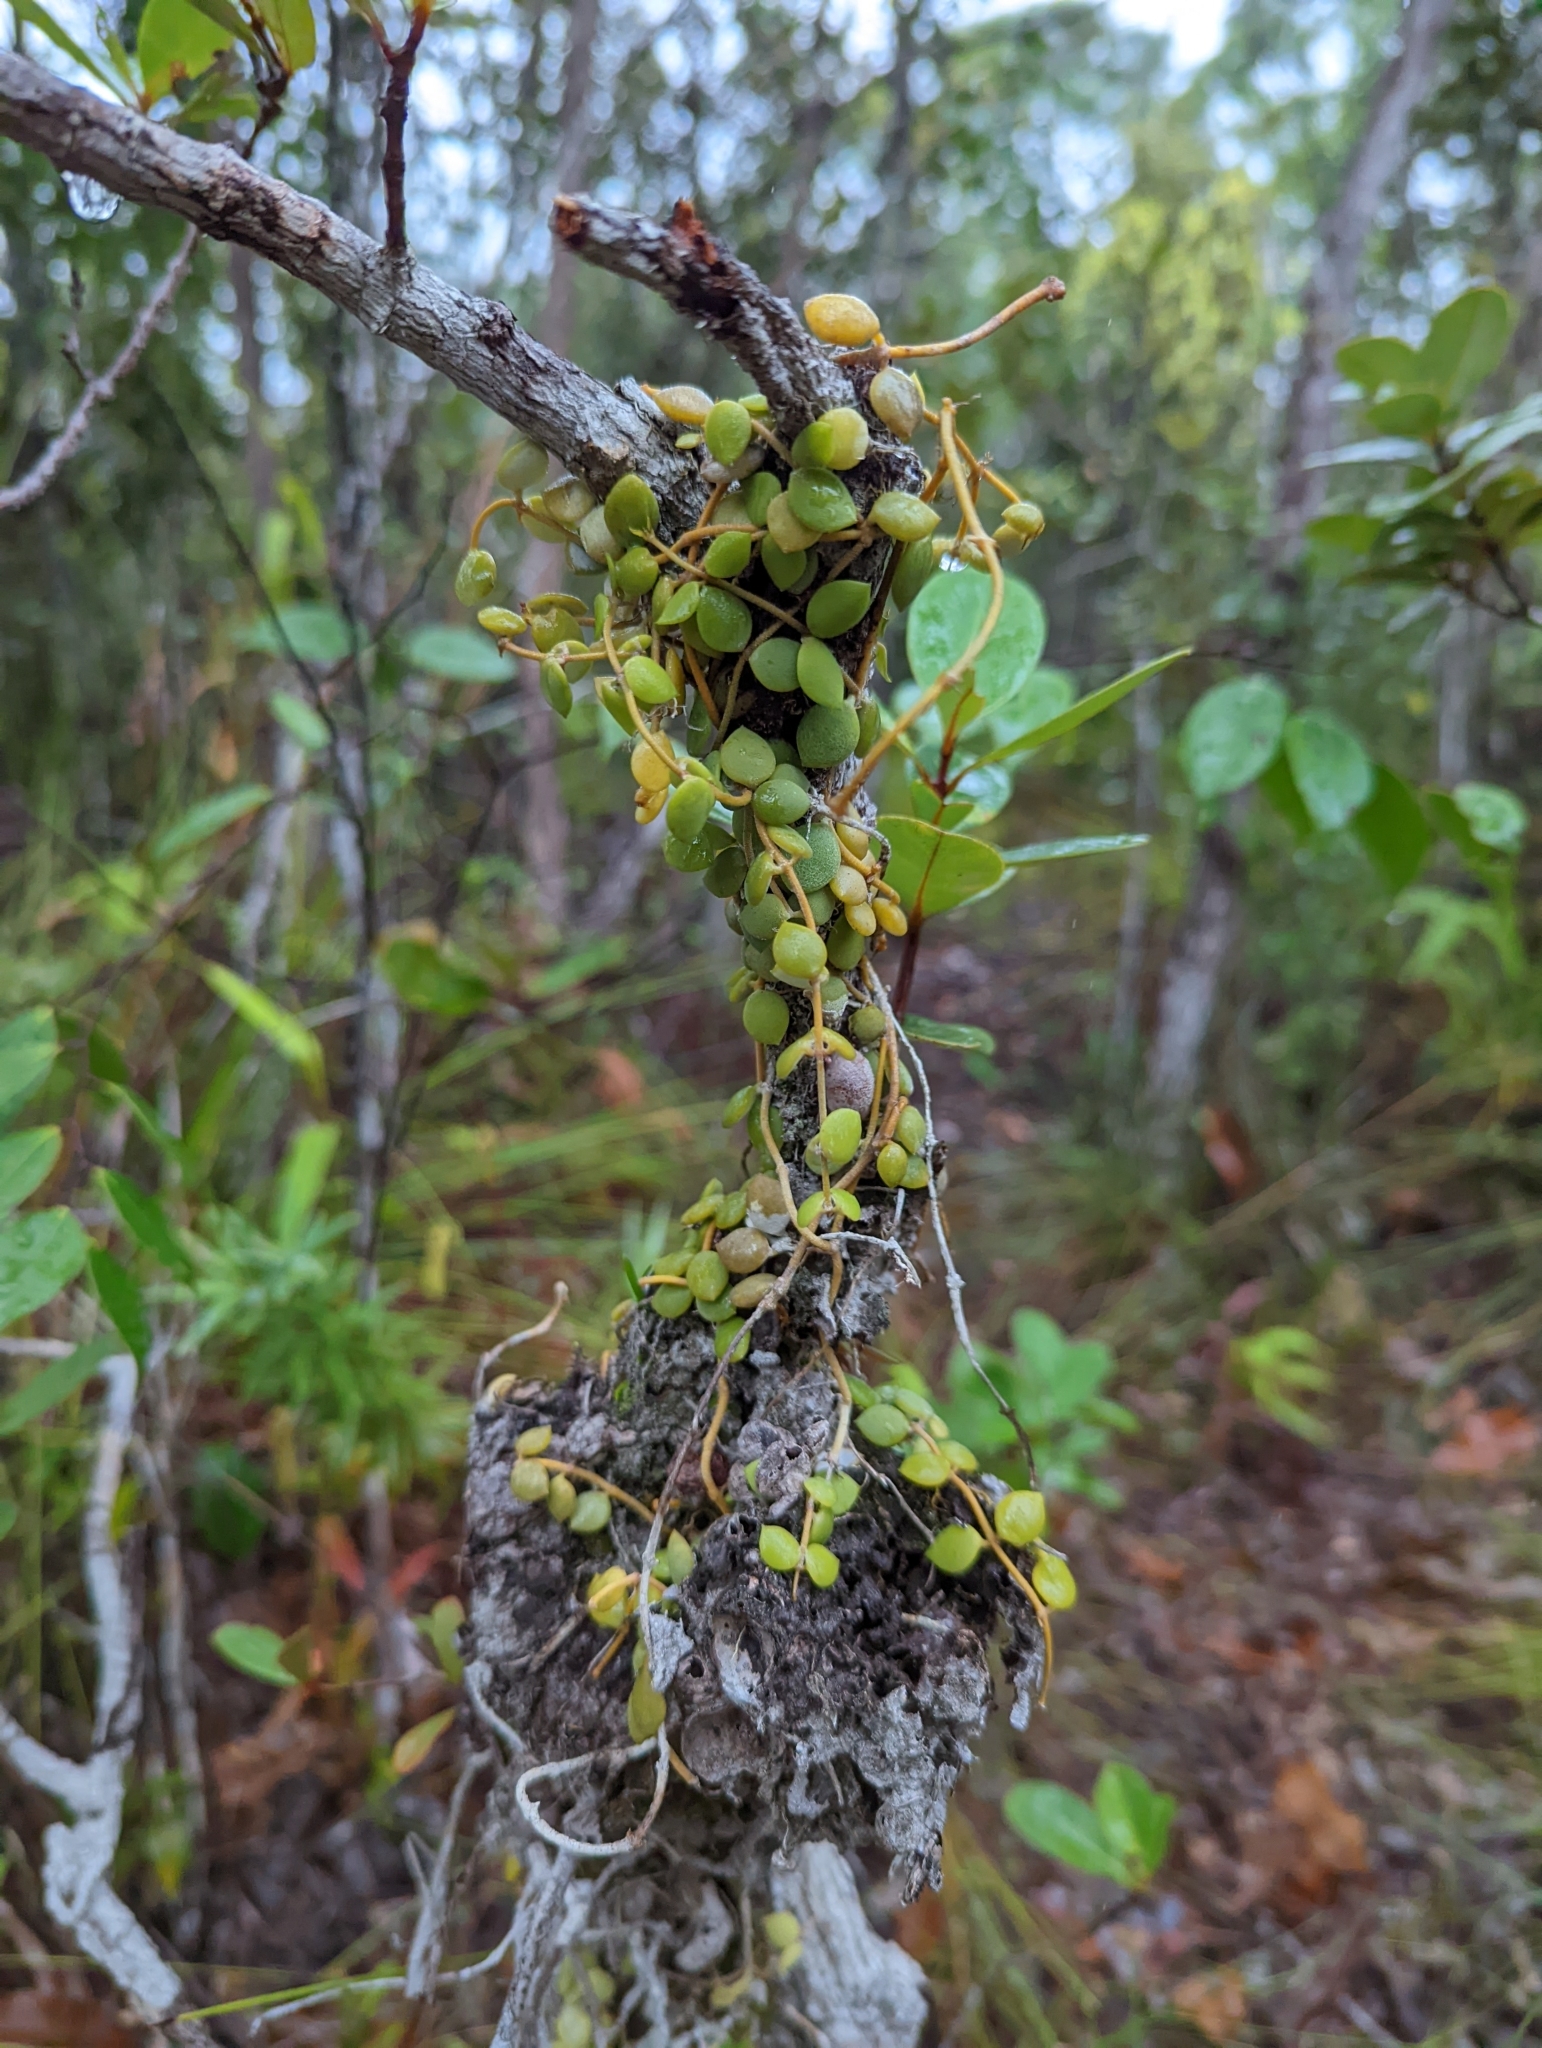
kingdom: Plantae
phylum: Tracheophyta
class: Magnoliopsida
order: Gentianales
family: Apocynaceae
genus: Dischidia
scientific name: Dischidia nummularia
